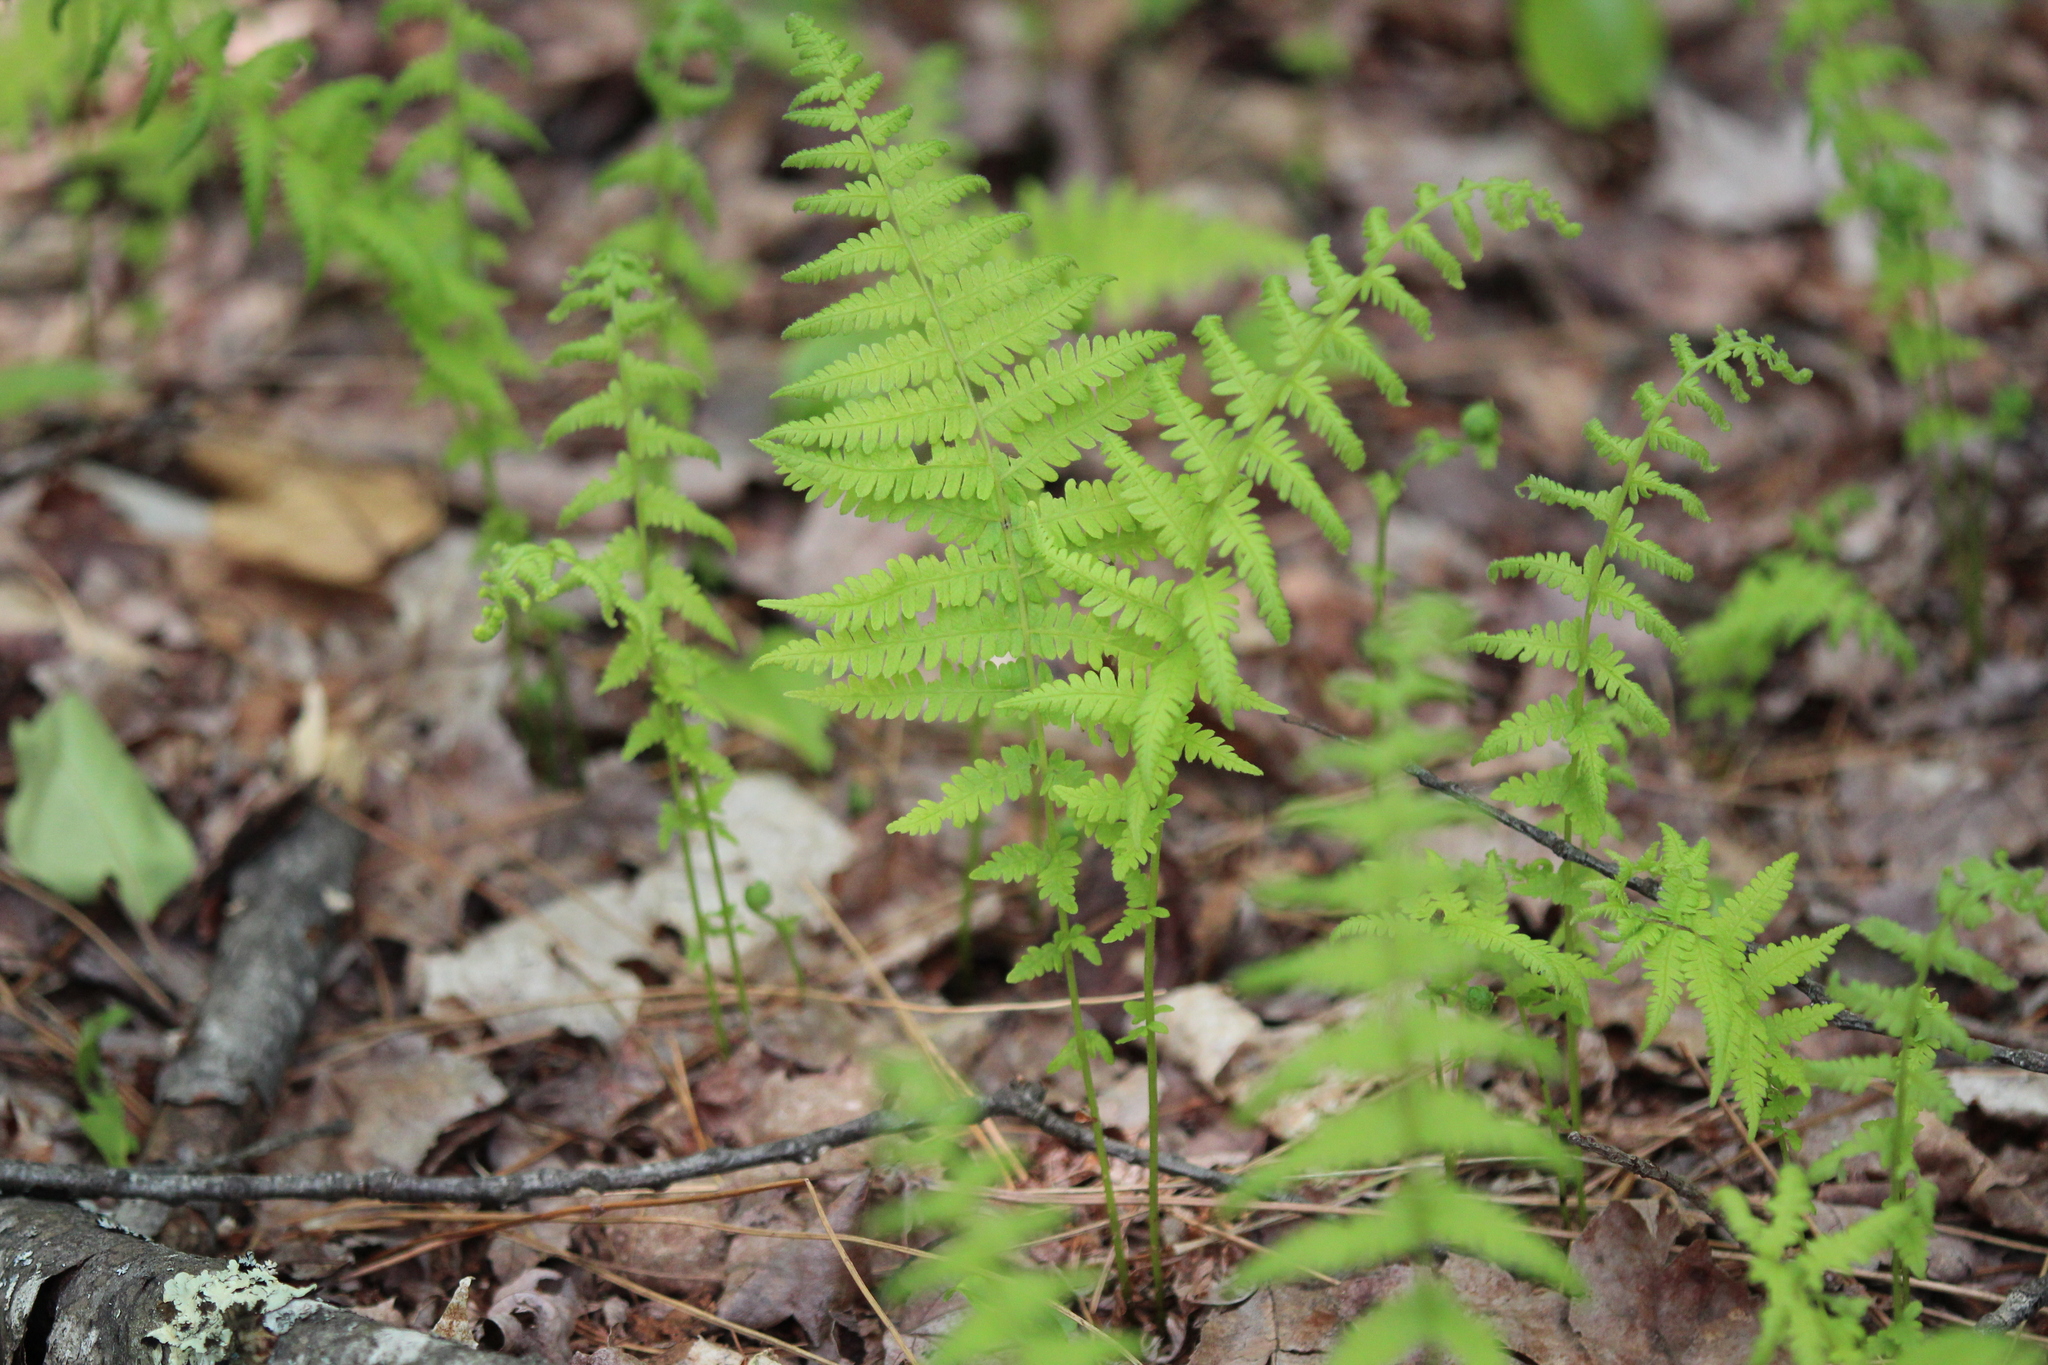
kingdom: Plantae
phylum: Tracheophyta
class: Polypodiopsida
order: Polypodiales
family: Thelypteridaceae
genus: Amauropelta
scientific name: Amauropelta noveboracensis
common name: New york fern
